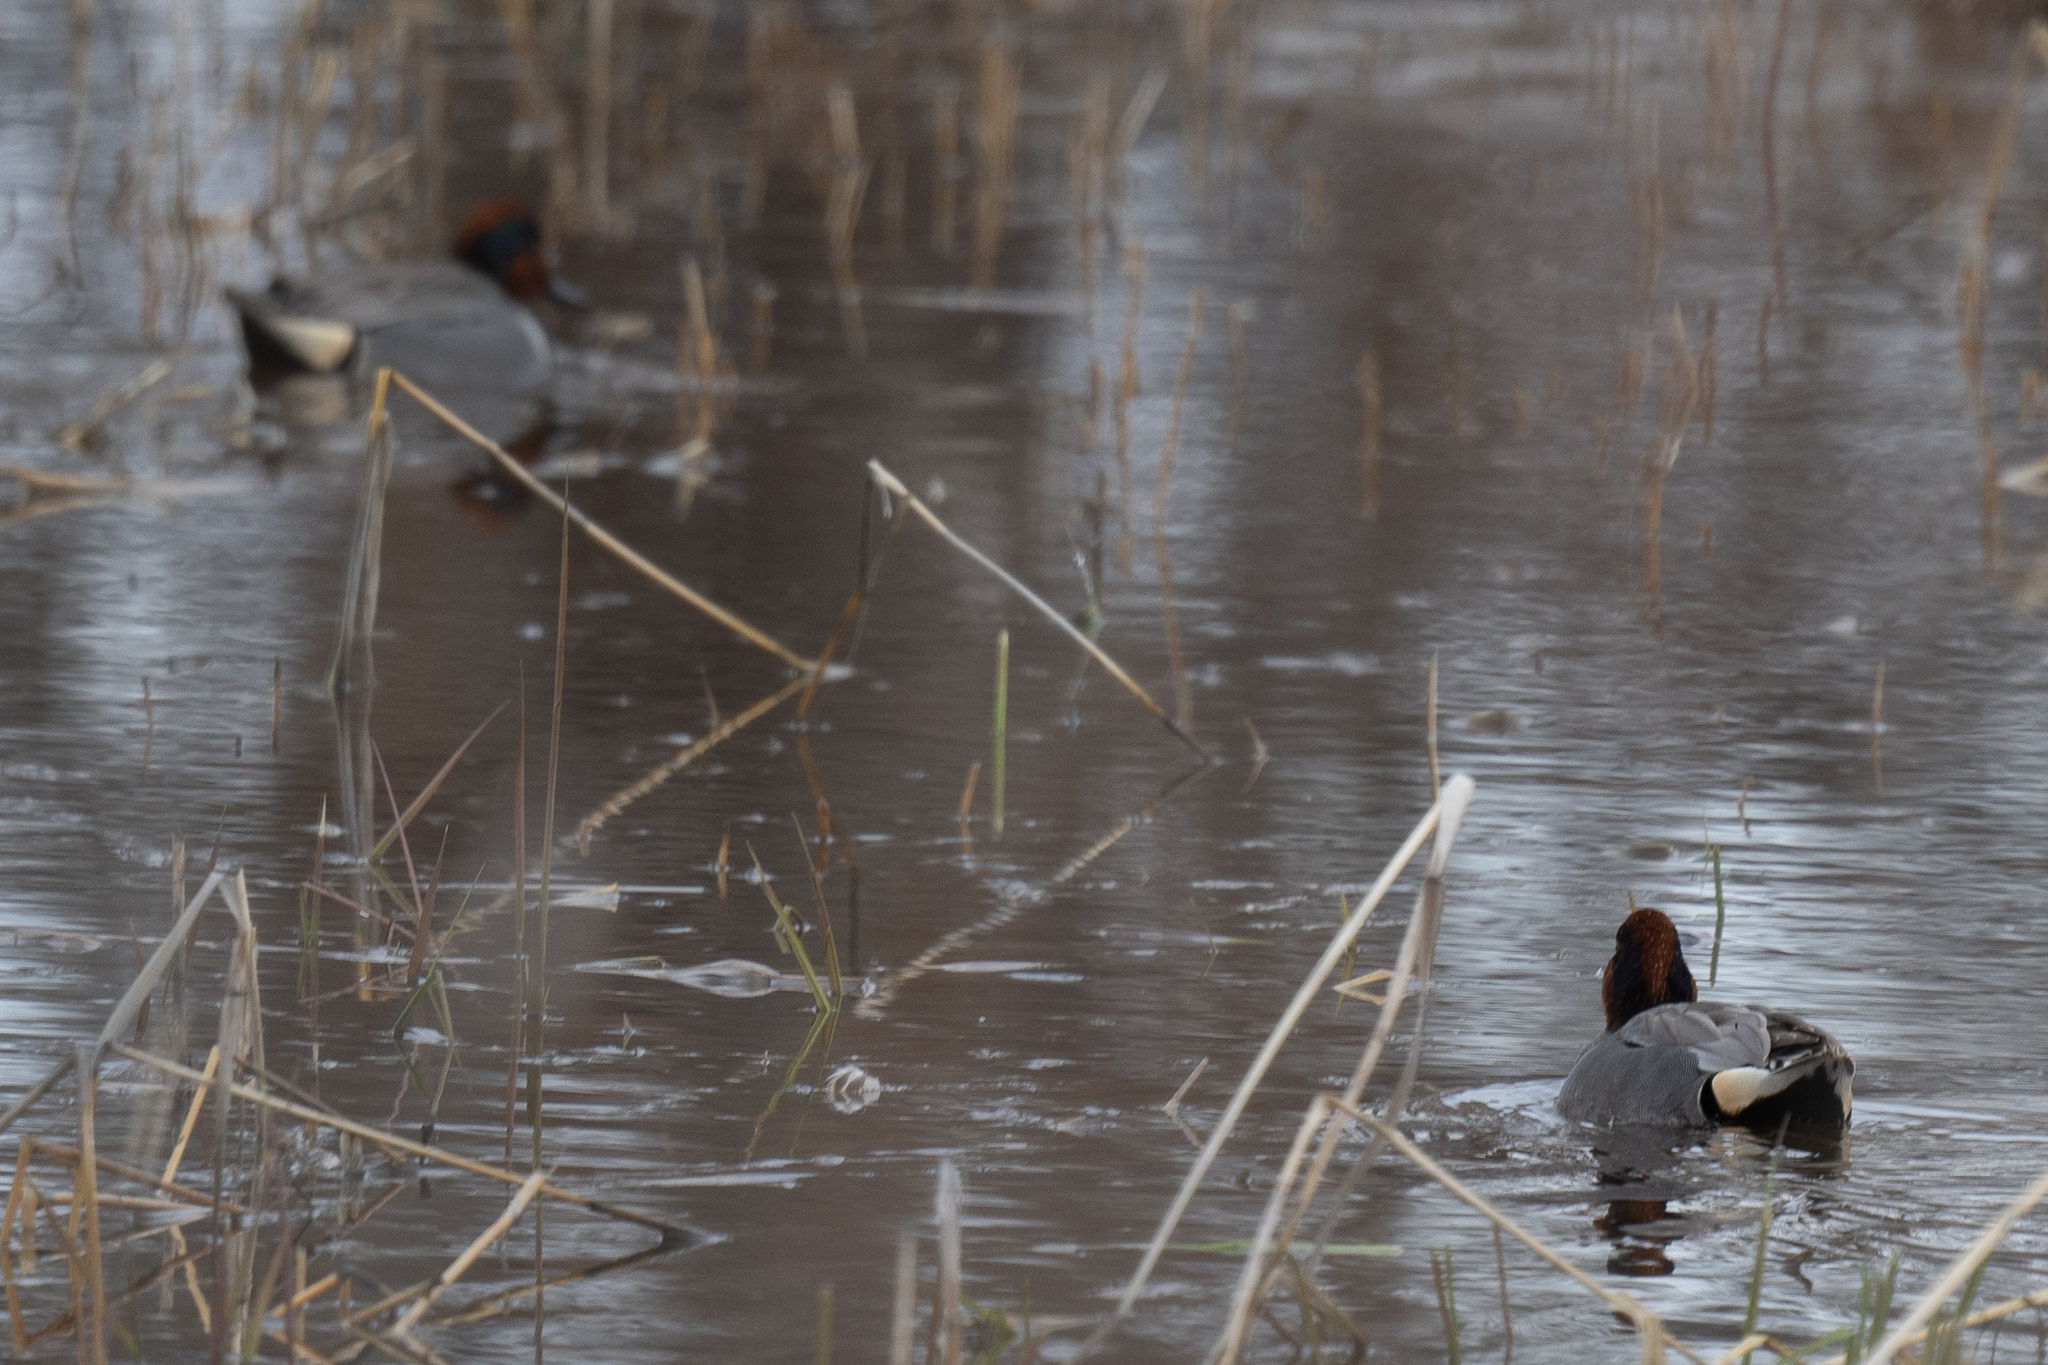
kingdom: Animalia
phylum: Chordata
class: Aves
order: Anseriformes
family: Anatidae
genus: Anas
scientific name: Anas crecca
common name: Eurasian teal
